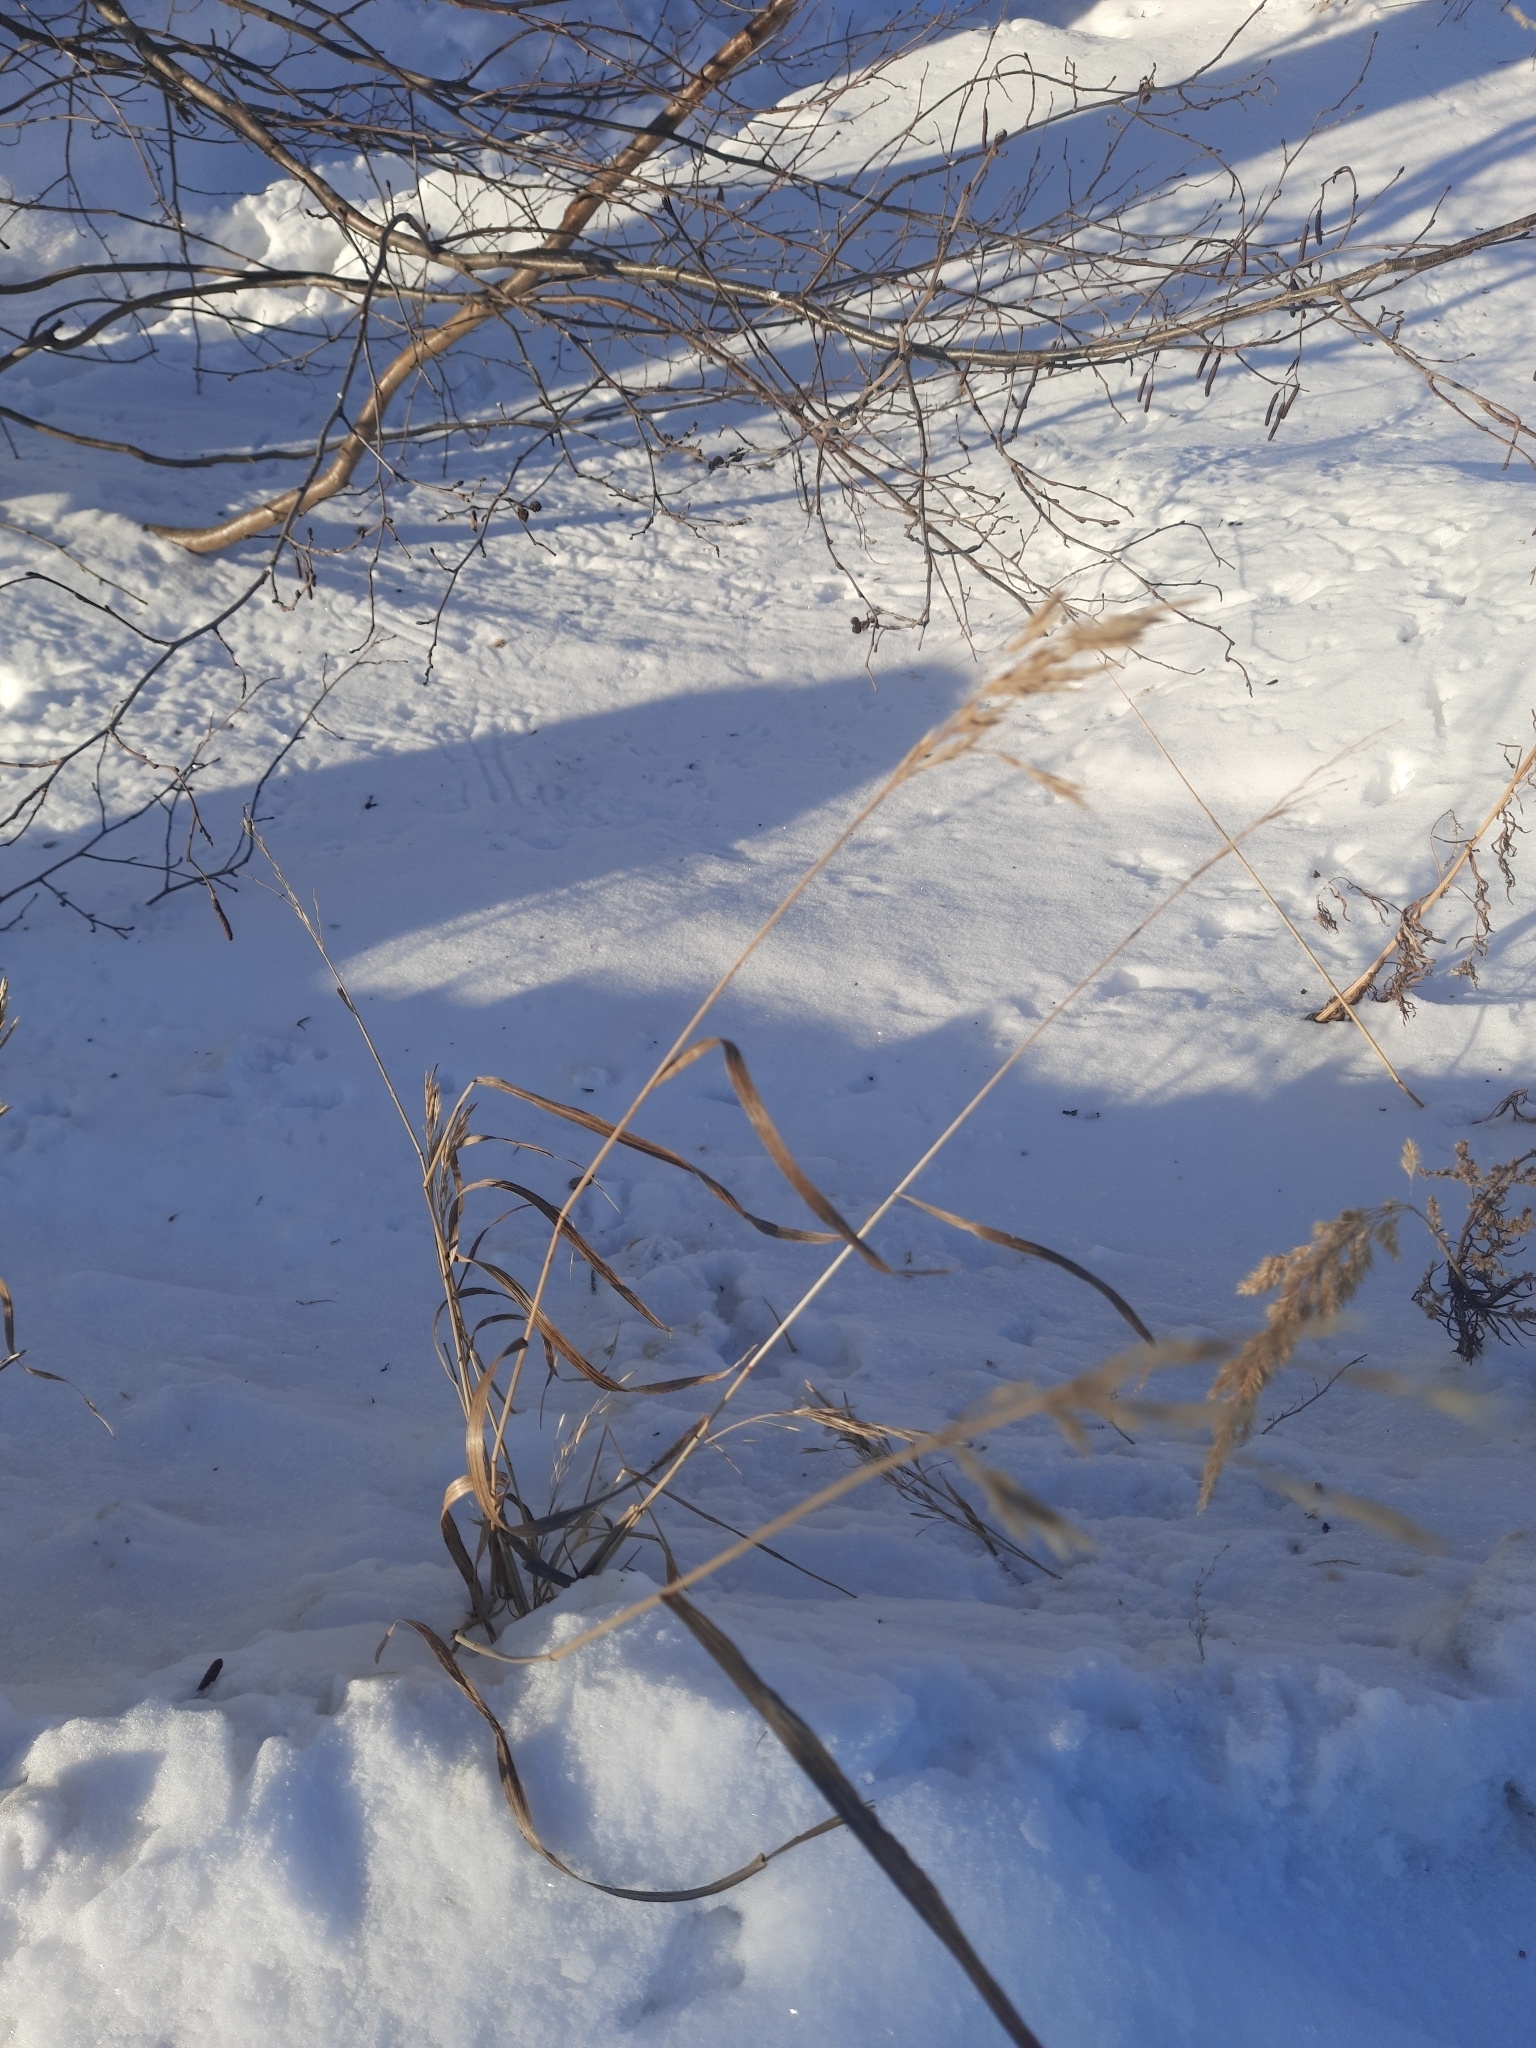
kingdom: Plantae
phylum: Tracheophyta
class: Liliopsida
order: Poales
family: Poaceae
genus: Calamagrostis
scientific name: Calamagrostis epigejos
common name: Wood small-reed
